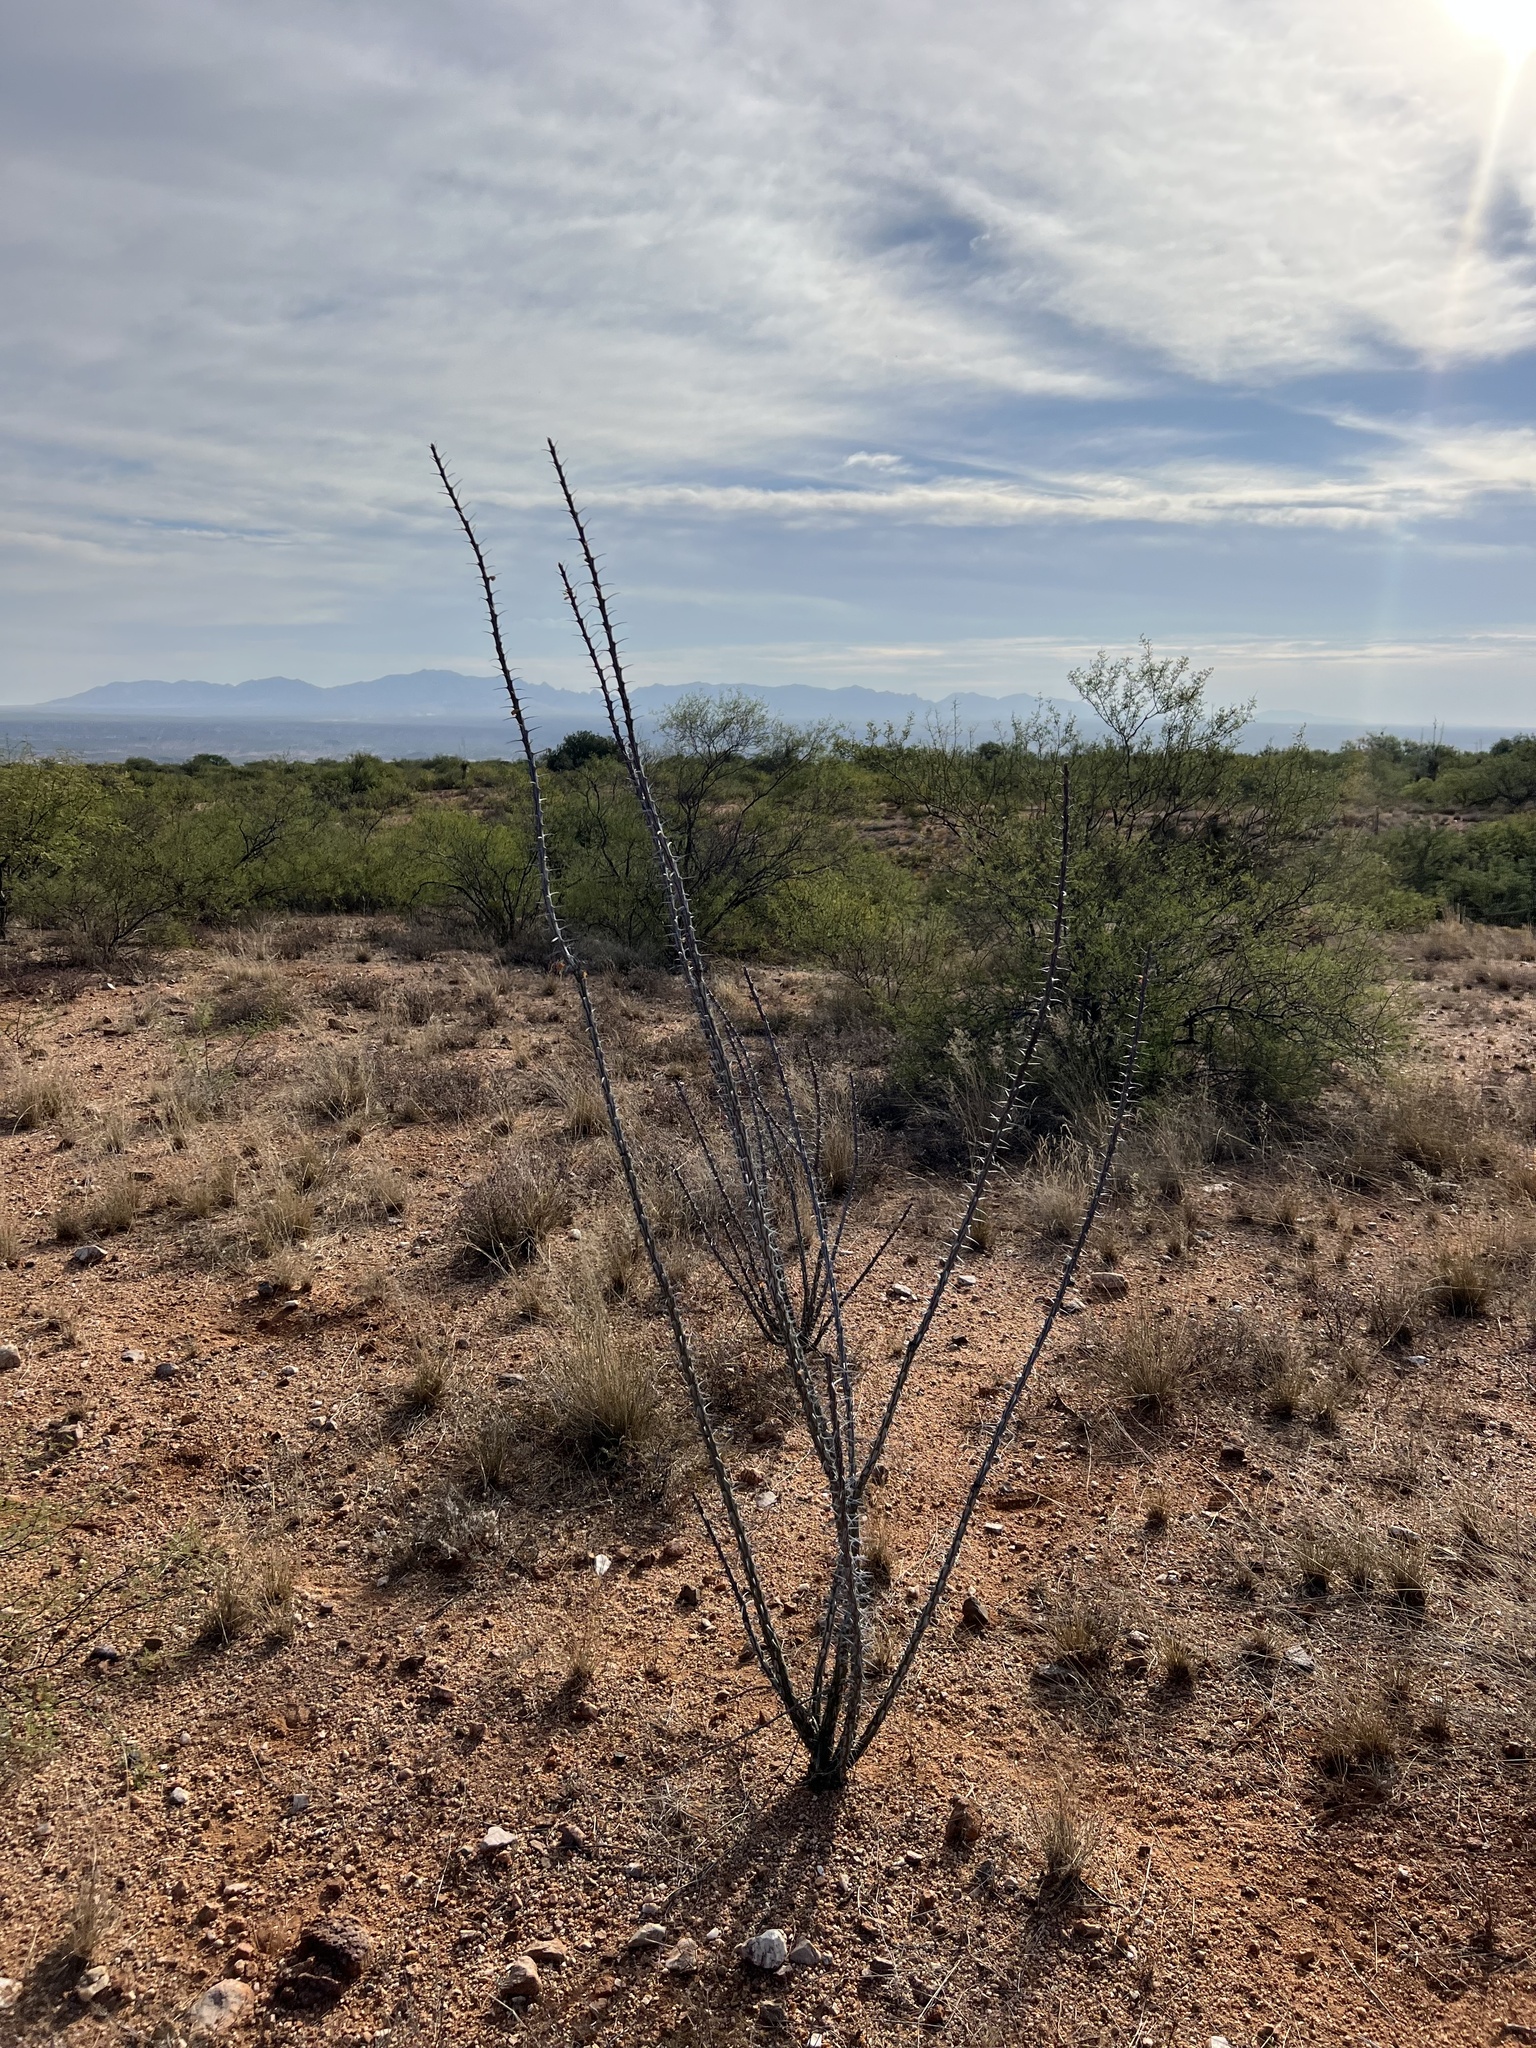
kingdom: Plantae
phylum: Tracheophyta
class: Magnoliopsida
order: Ericales
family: Fouquieriaceae
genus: Fouquieria
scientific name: Fouquieria splendens
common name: Vine-cactus
